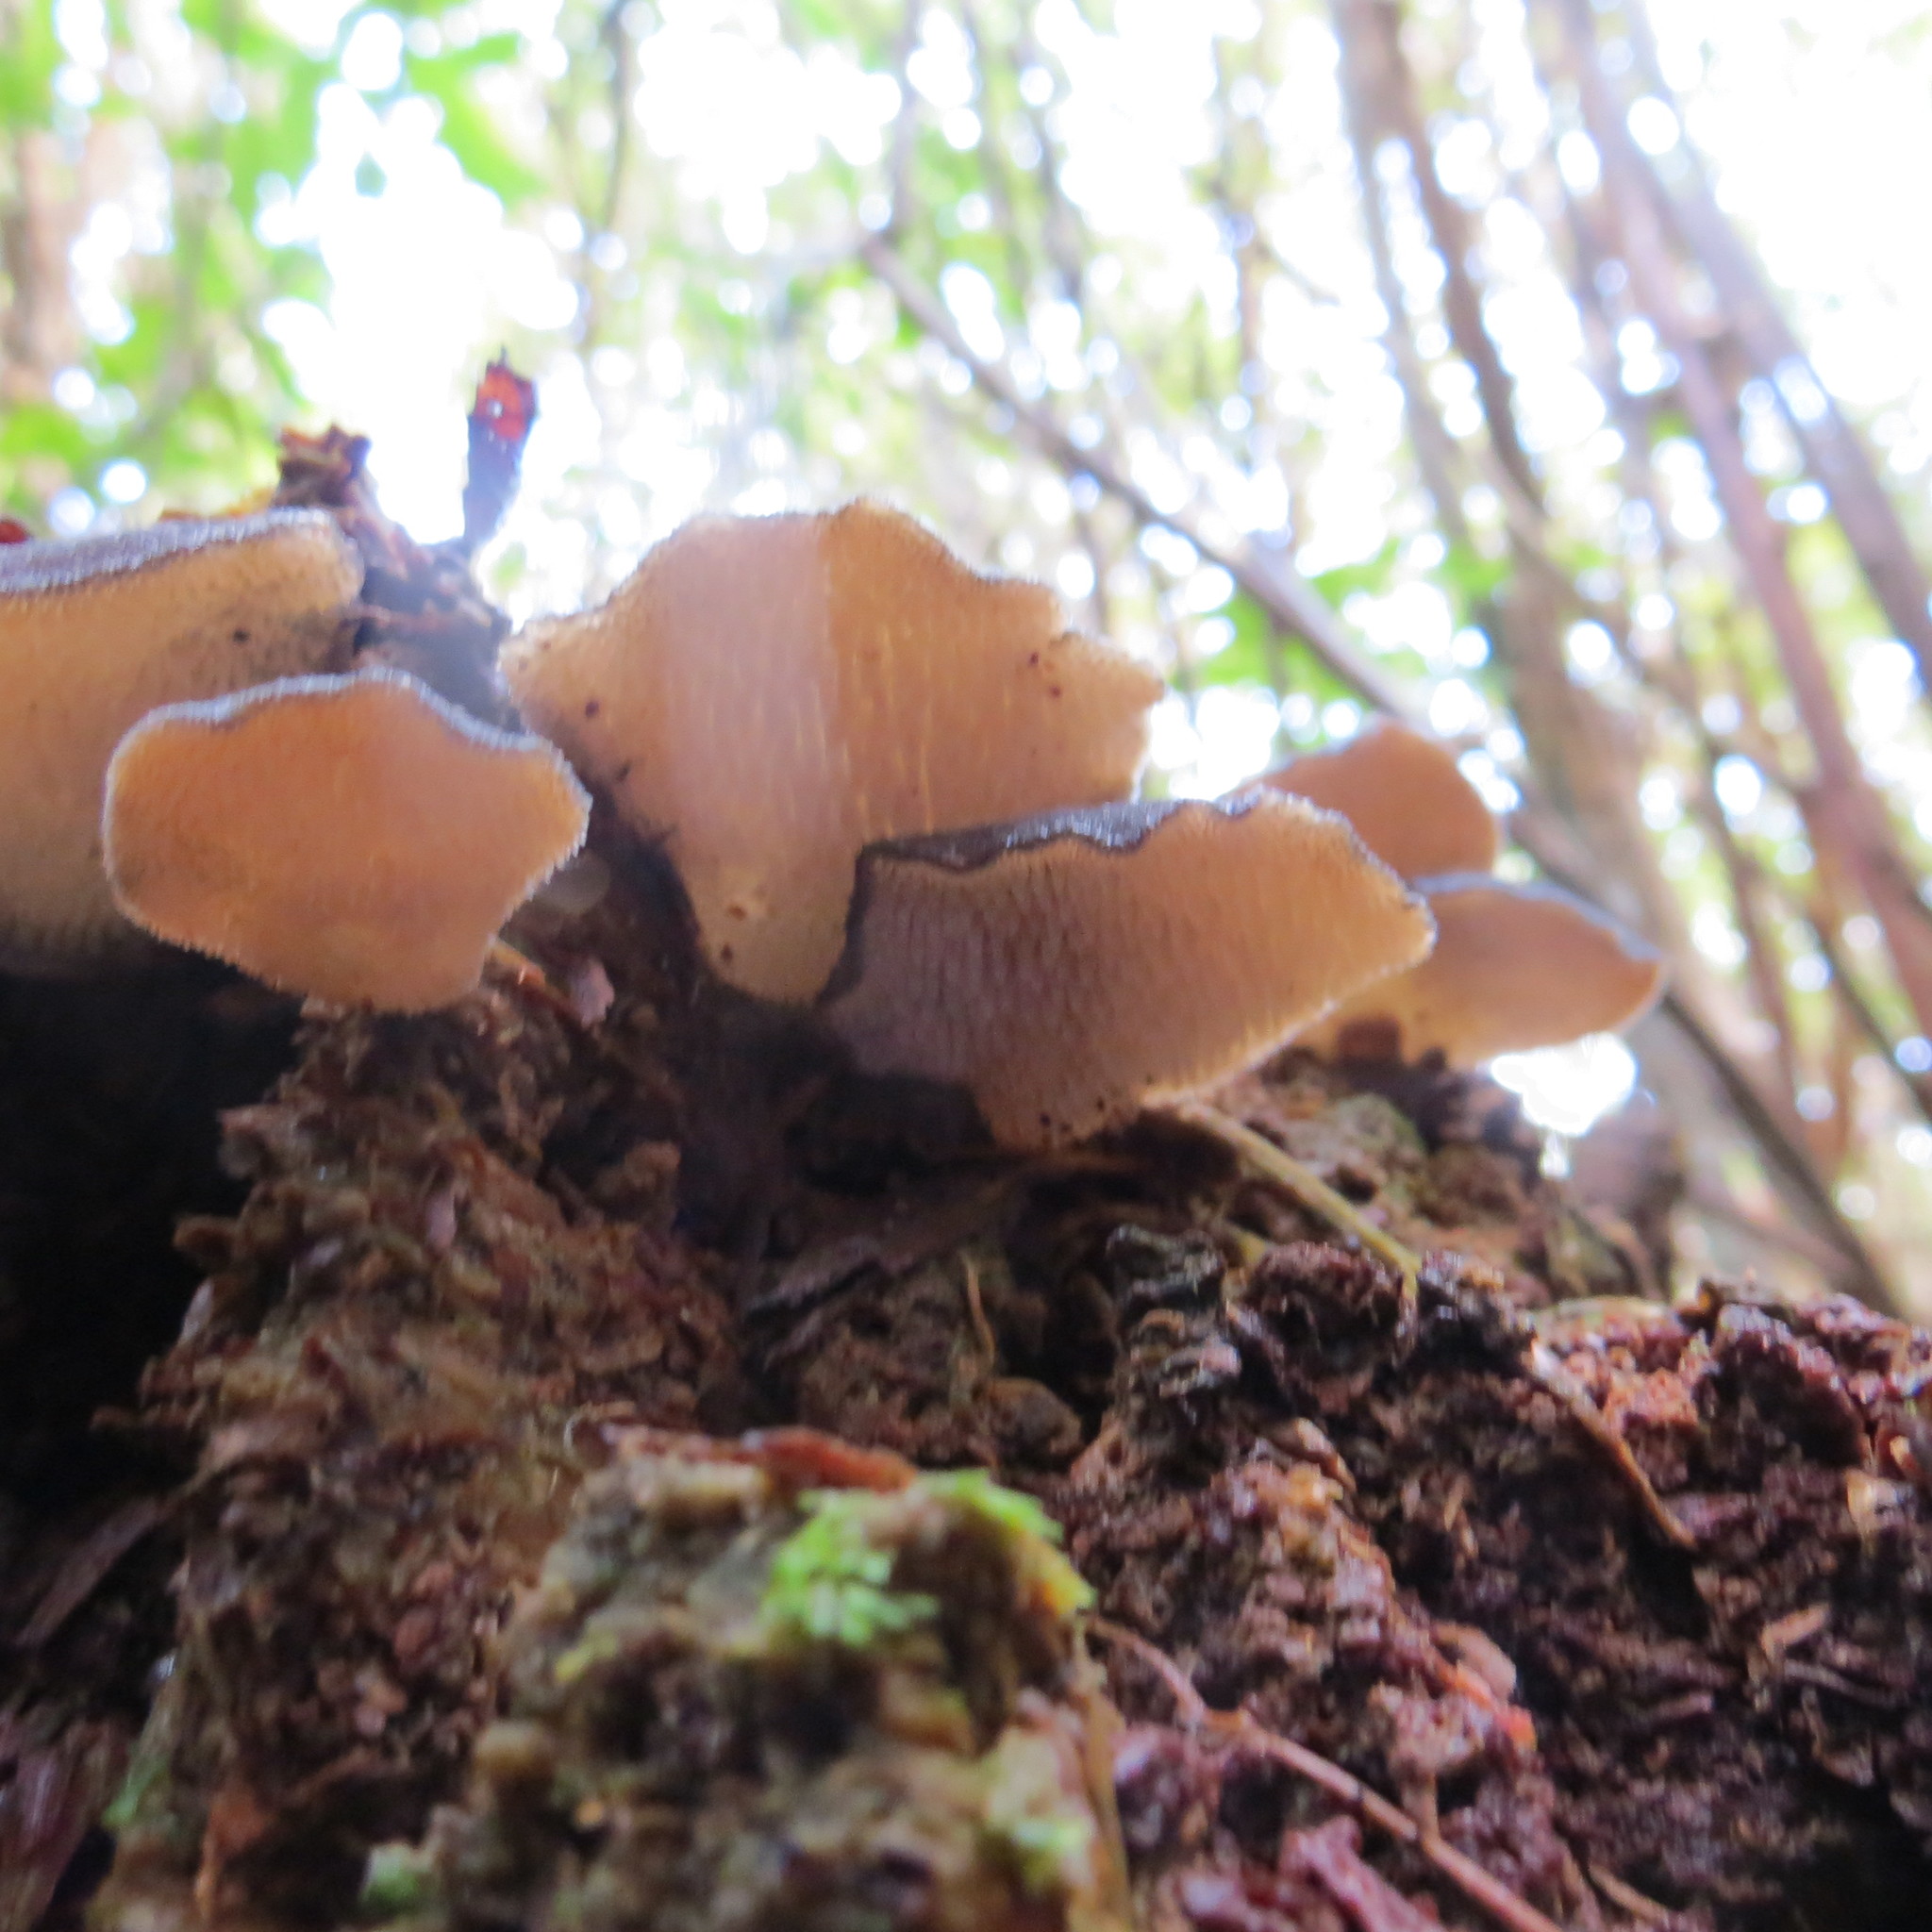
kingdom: Fungi
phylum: Basidiomycota
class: Agaricomycetes
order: Auriculariales
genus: Pseudohydnum
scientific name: Pseudohydnum orbiculare
